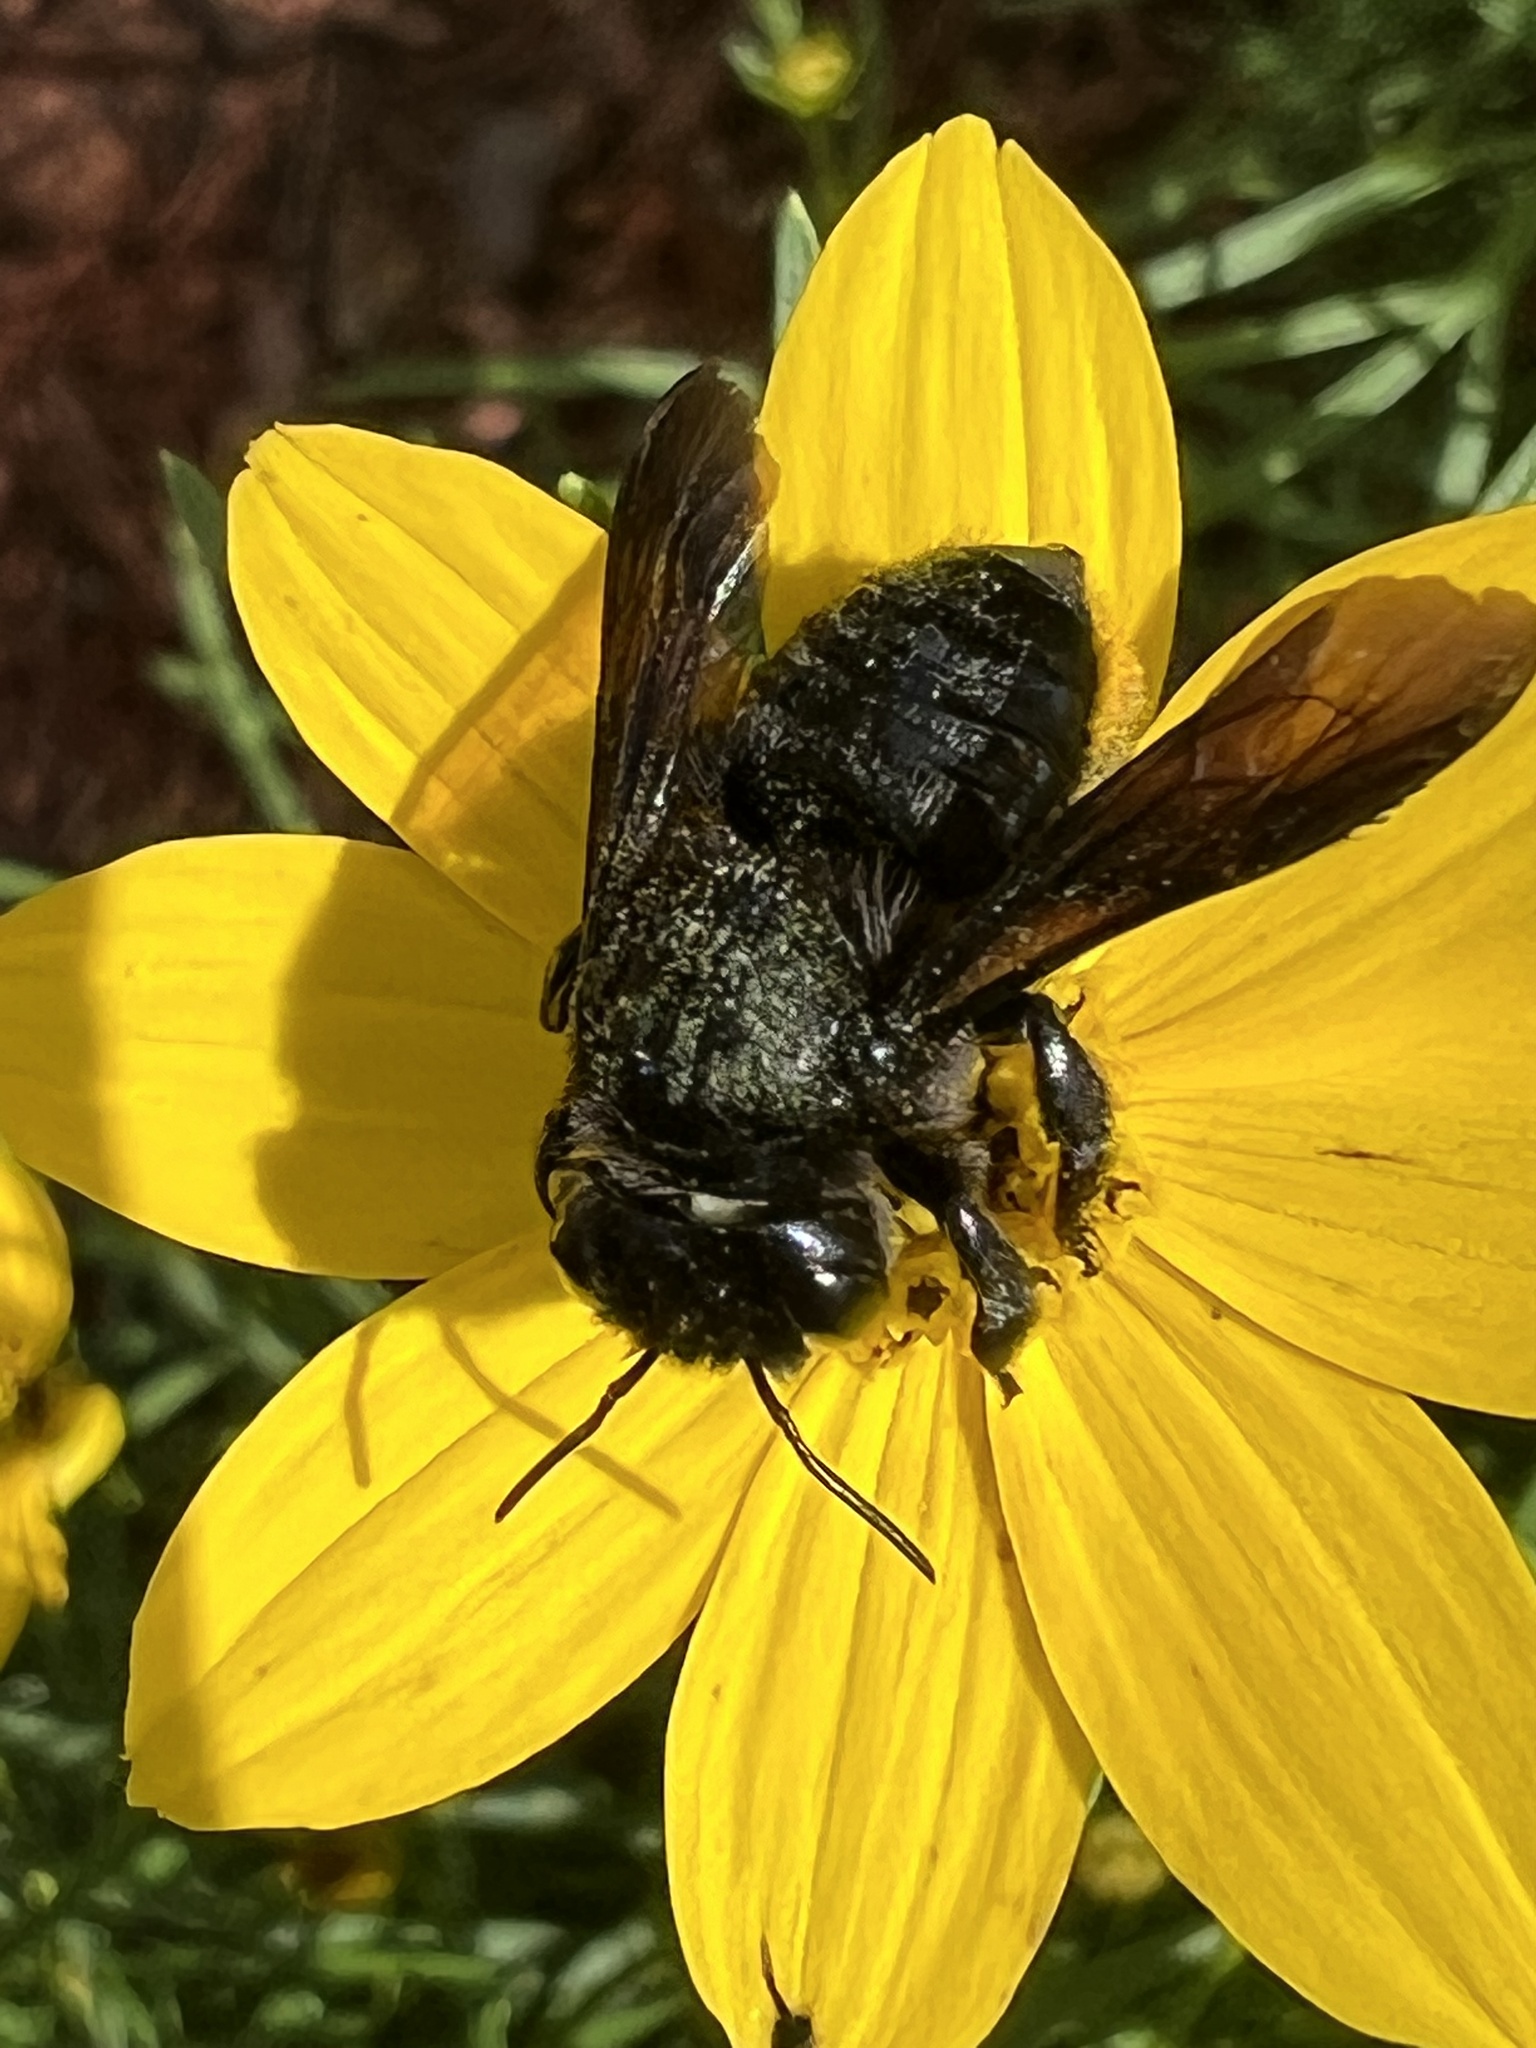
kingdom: Animalia
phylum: Arthropoda
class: Insecta
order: Hymenoptera
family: Megachilidae
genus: Megachile
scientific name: Megachile xylocopoides
